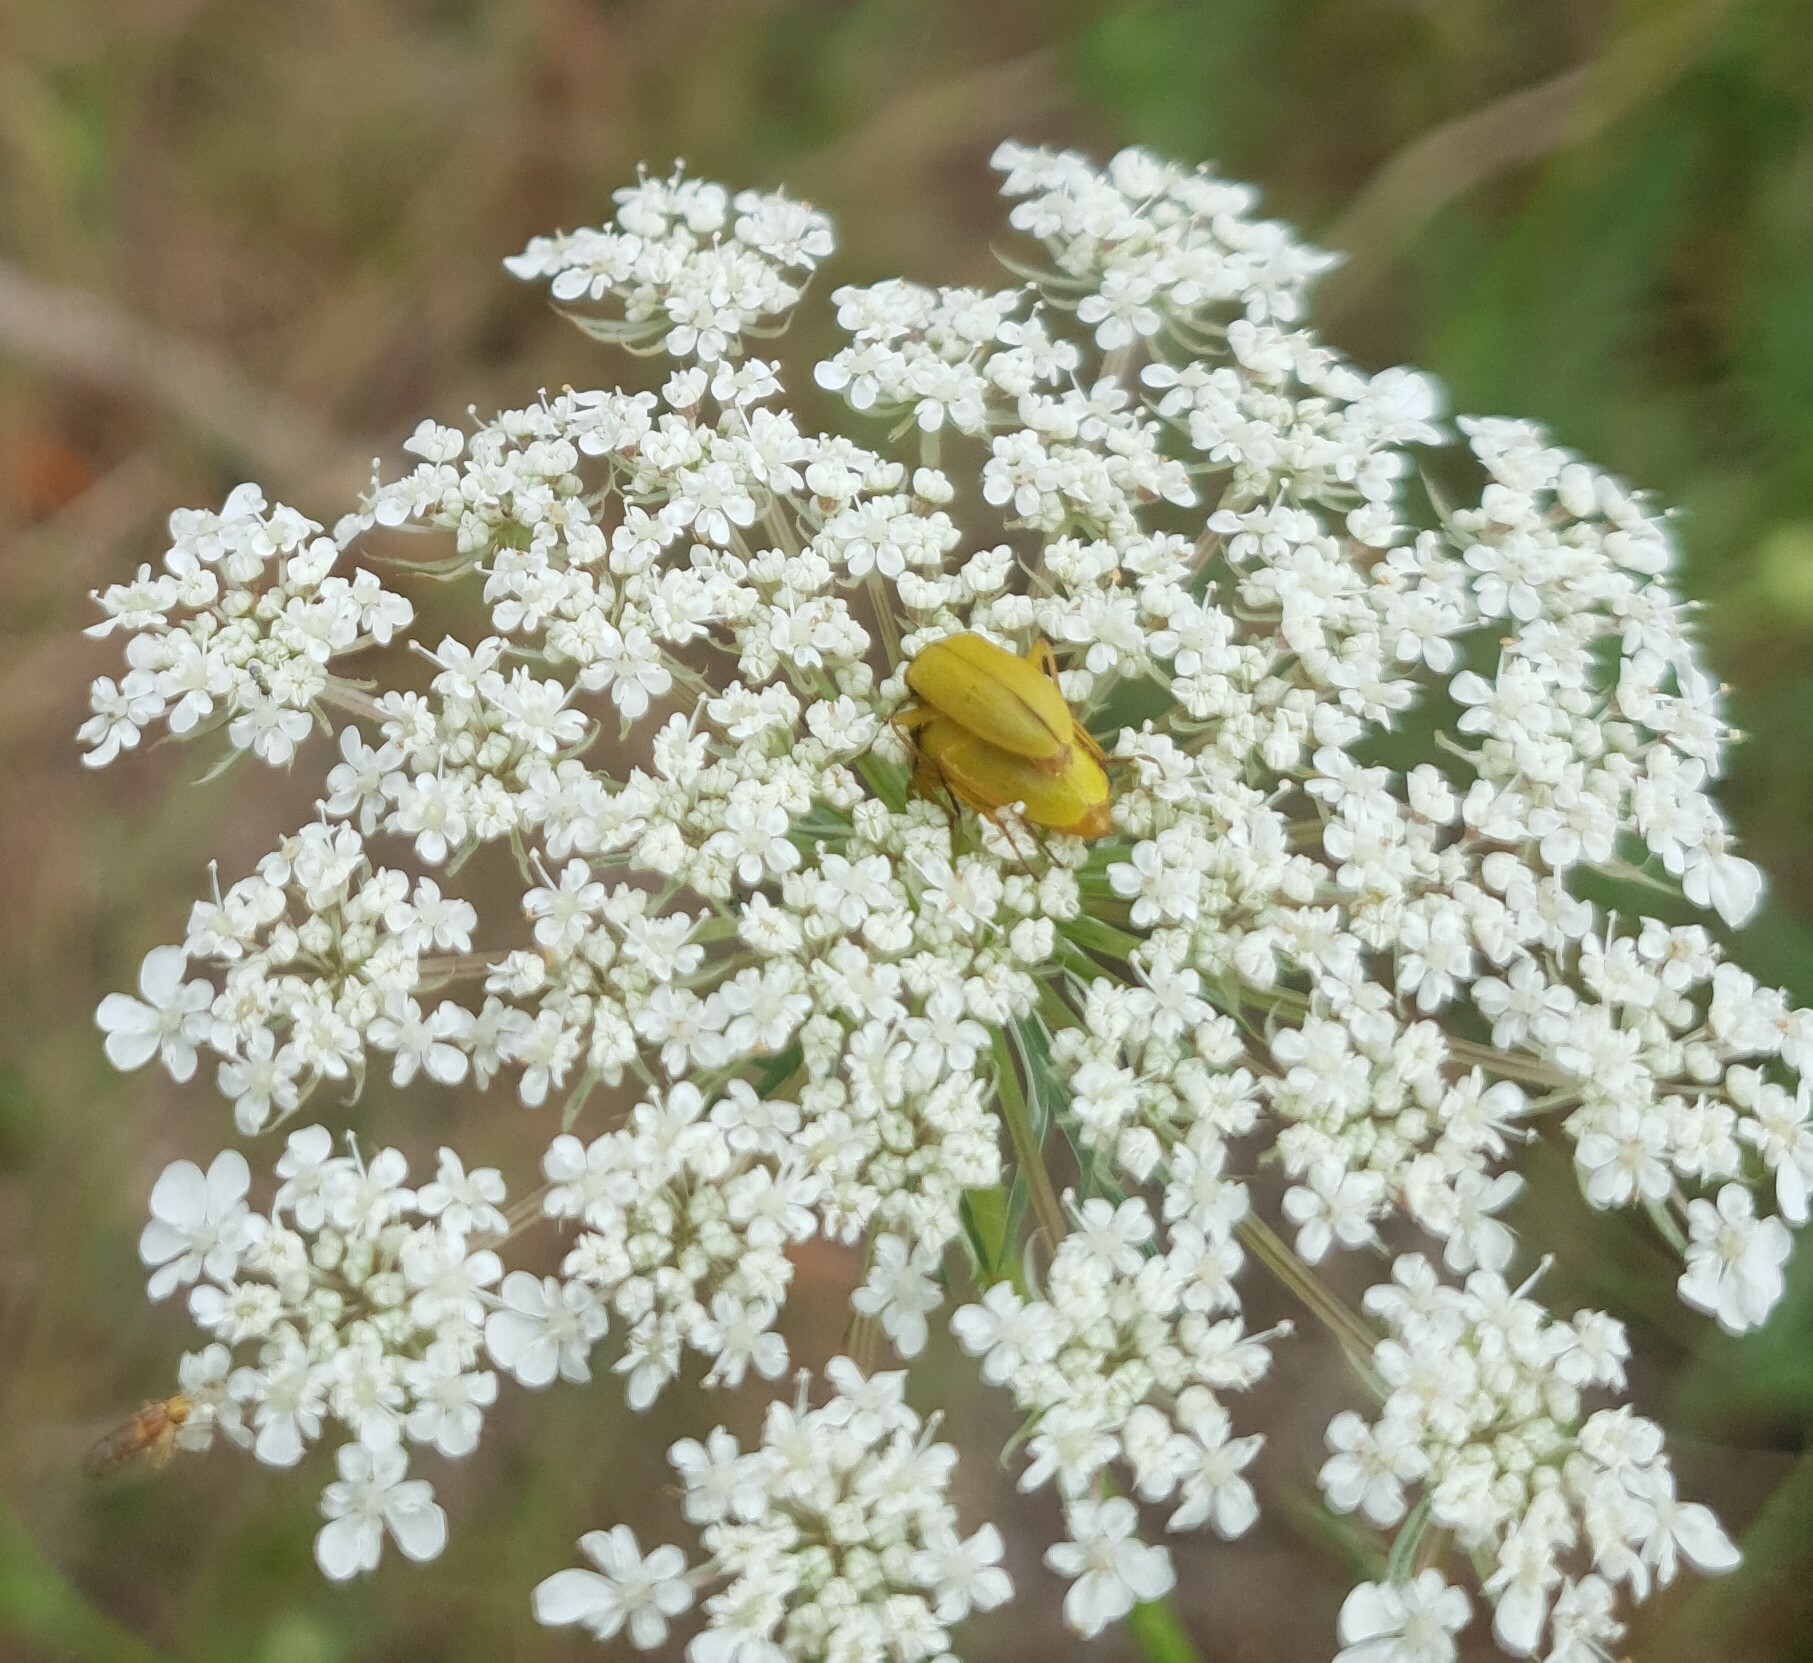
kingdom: Animalia
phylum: Arthropoda
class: Insecta
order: Coleoptera
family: Tenebrionidae
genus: Cteniopus
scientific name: Cteniopus sulphureus
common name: Sulphur beetle
